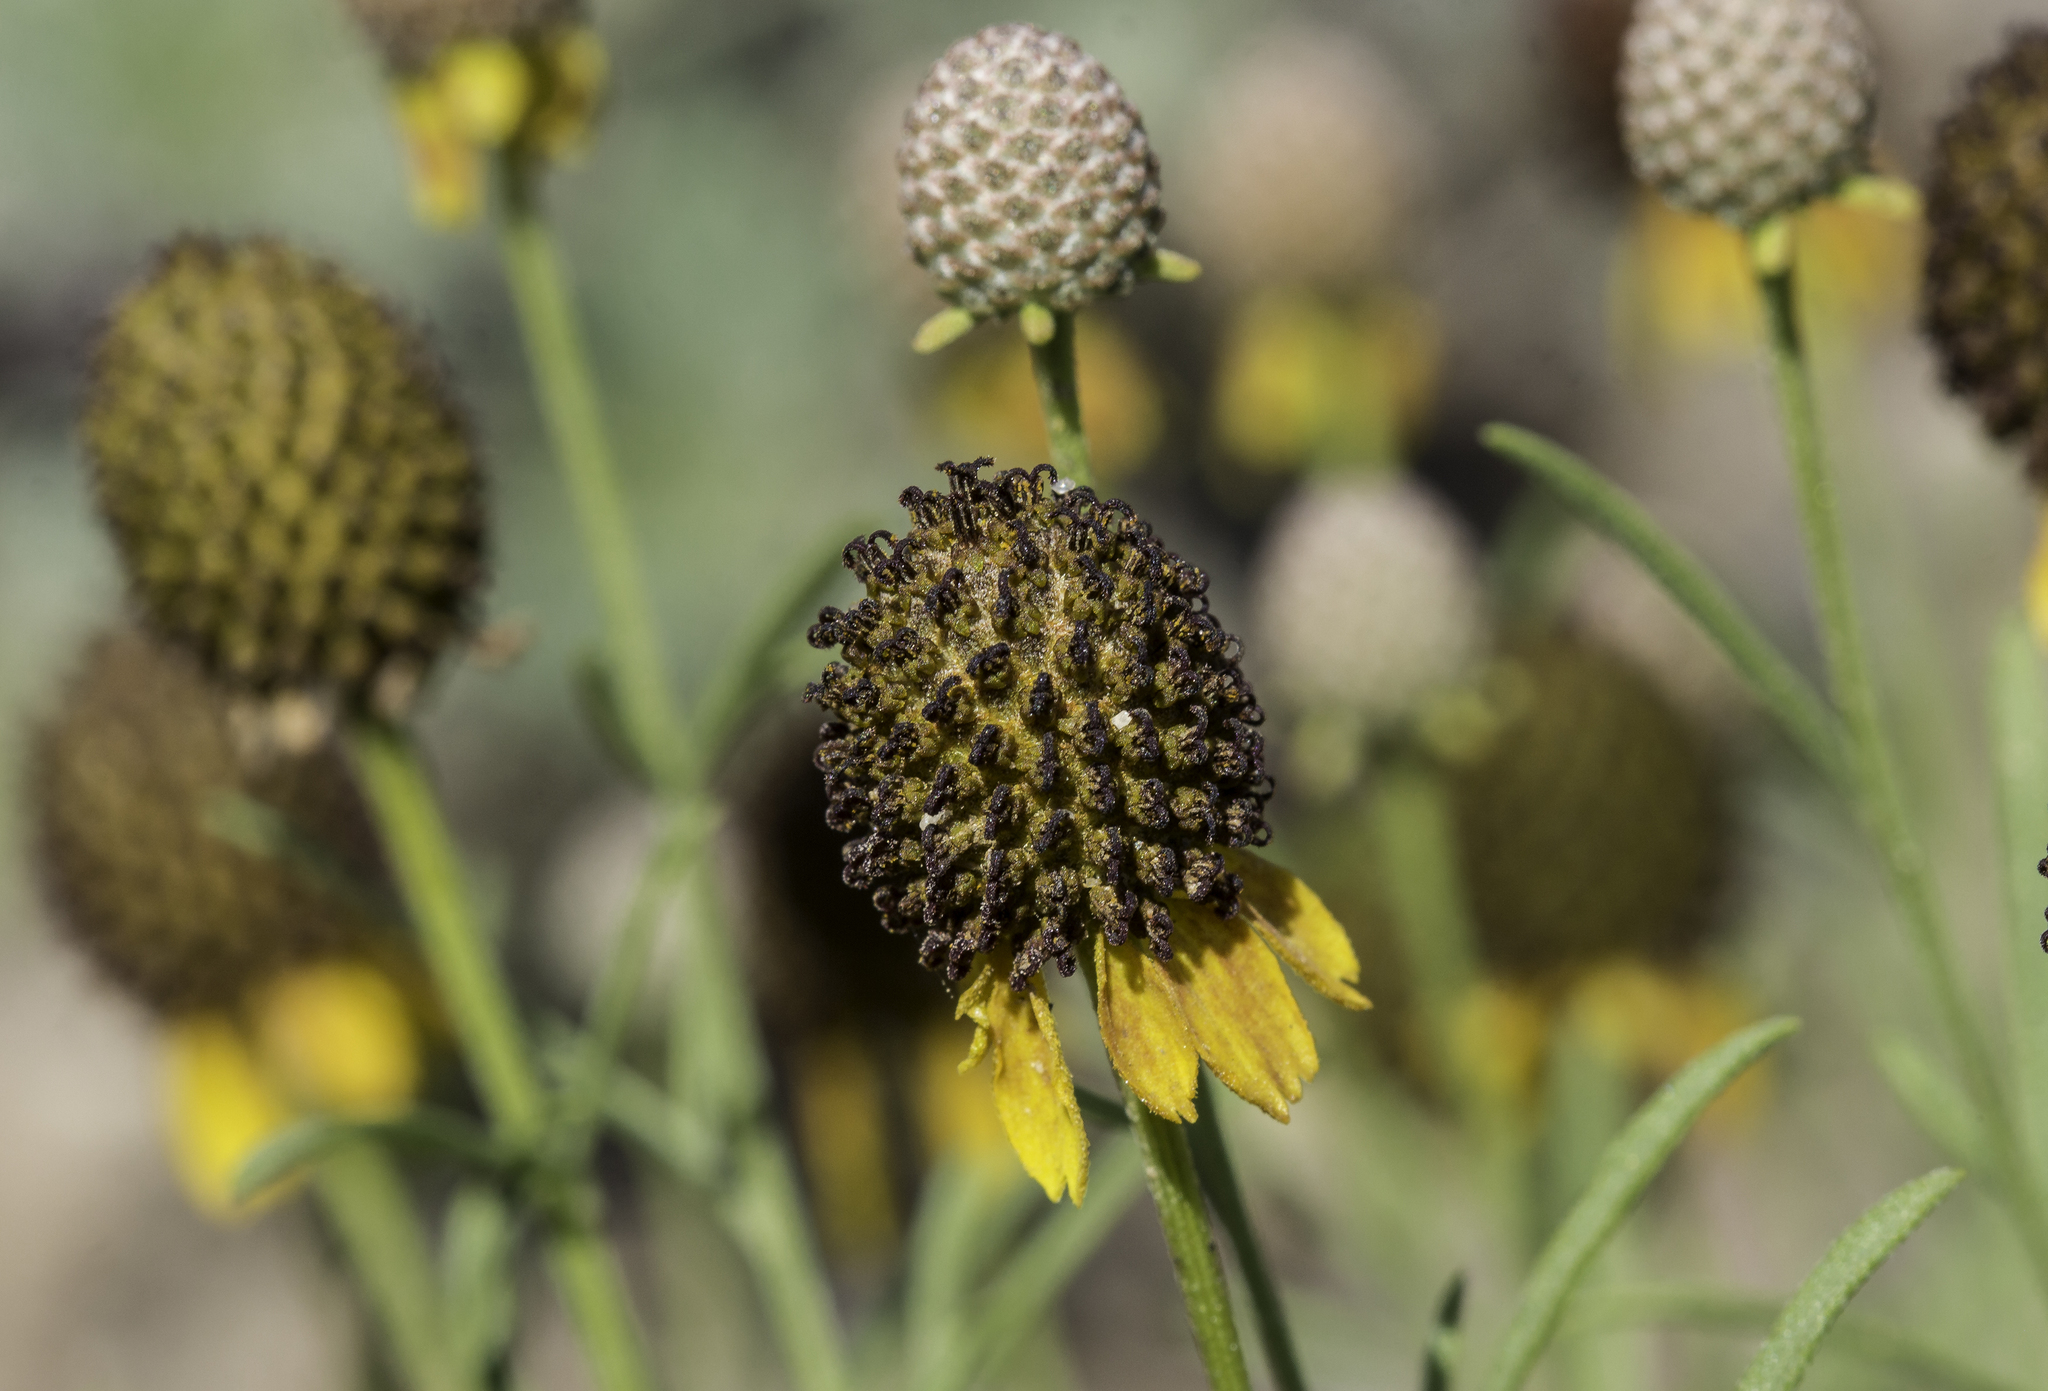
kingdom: Plantae
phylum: Tracheophyta
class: Magnoliopsida
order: Asterales
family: Asteraceae
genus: Ratibida
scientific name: Ratibida tagetes
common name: Green mexican-hat
